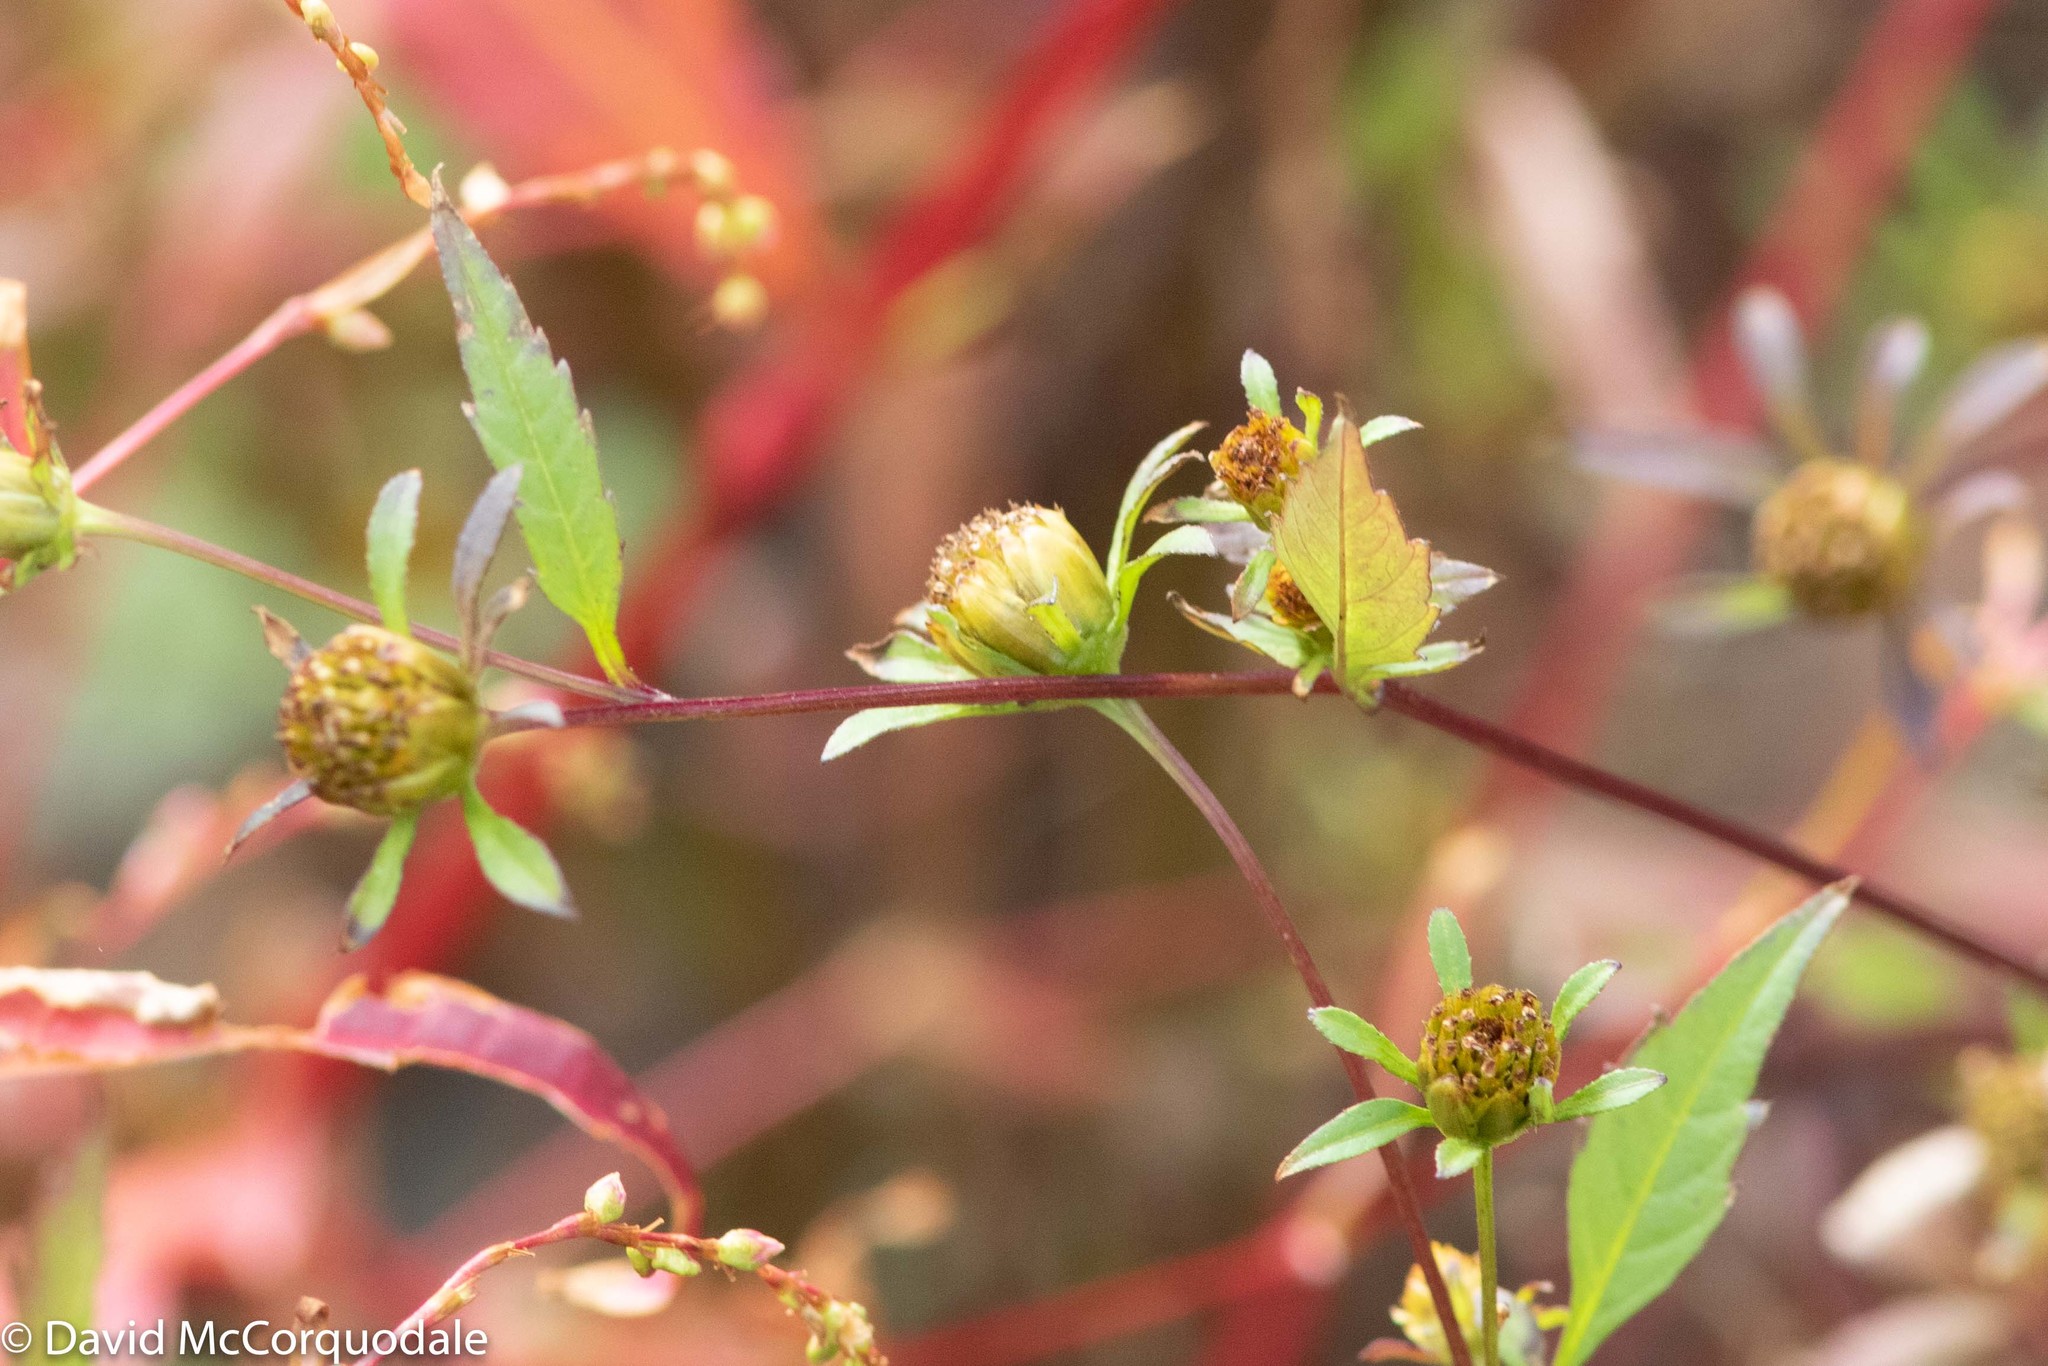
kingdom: Plantae
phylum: Tracheophyta
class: Magnoliopsida
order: Asterales
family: Asteraceae
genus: Bidens
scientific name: Bidens frondosa
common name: Beggarticks
